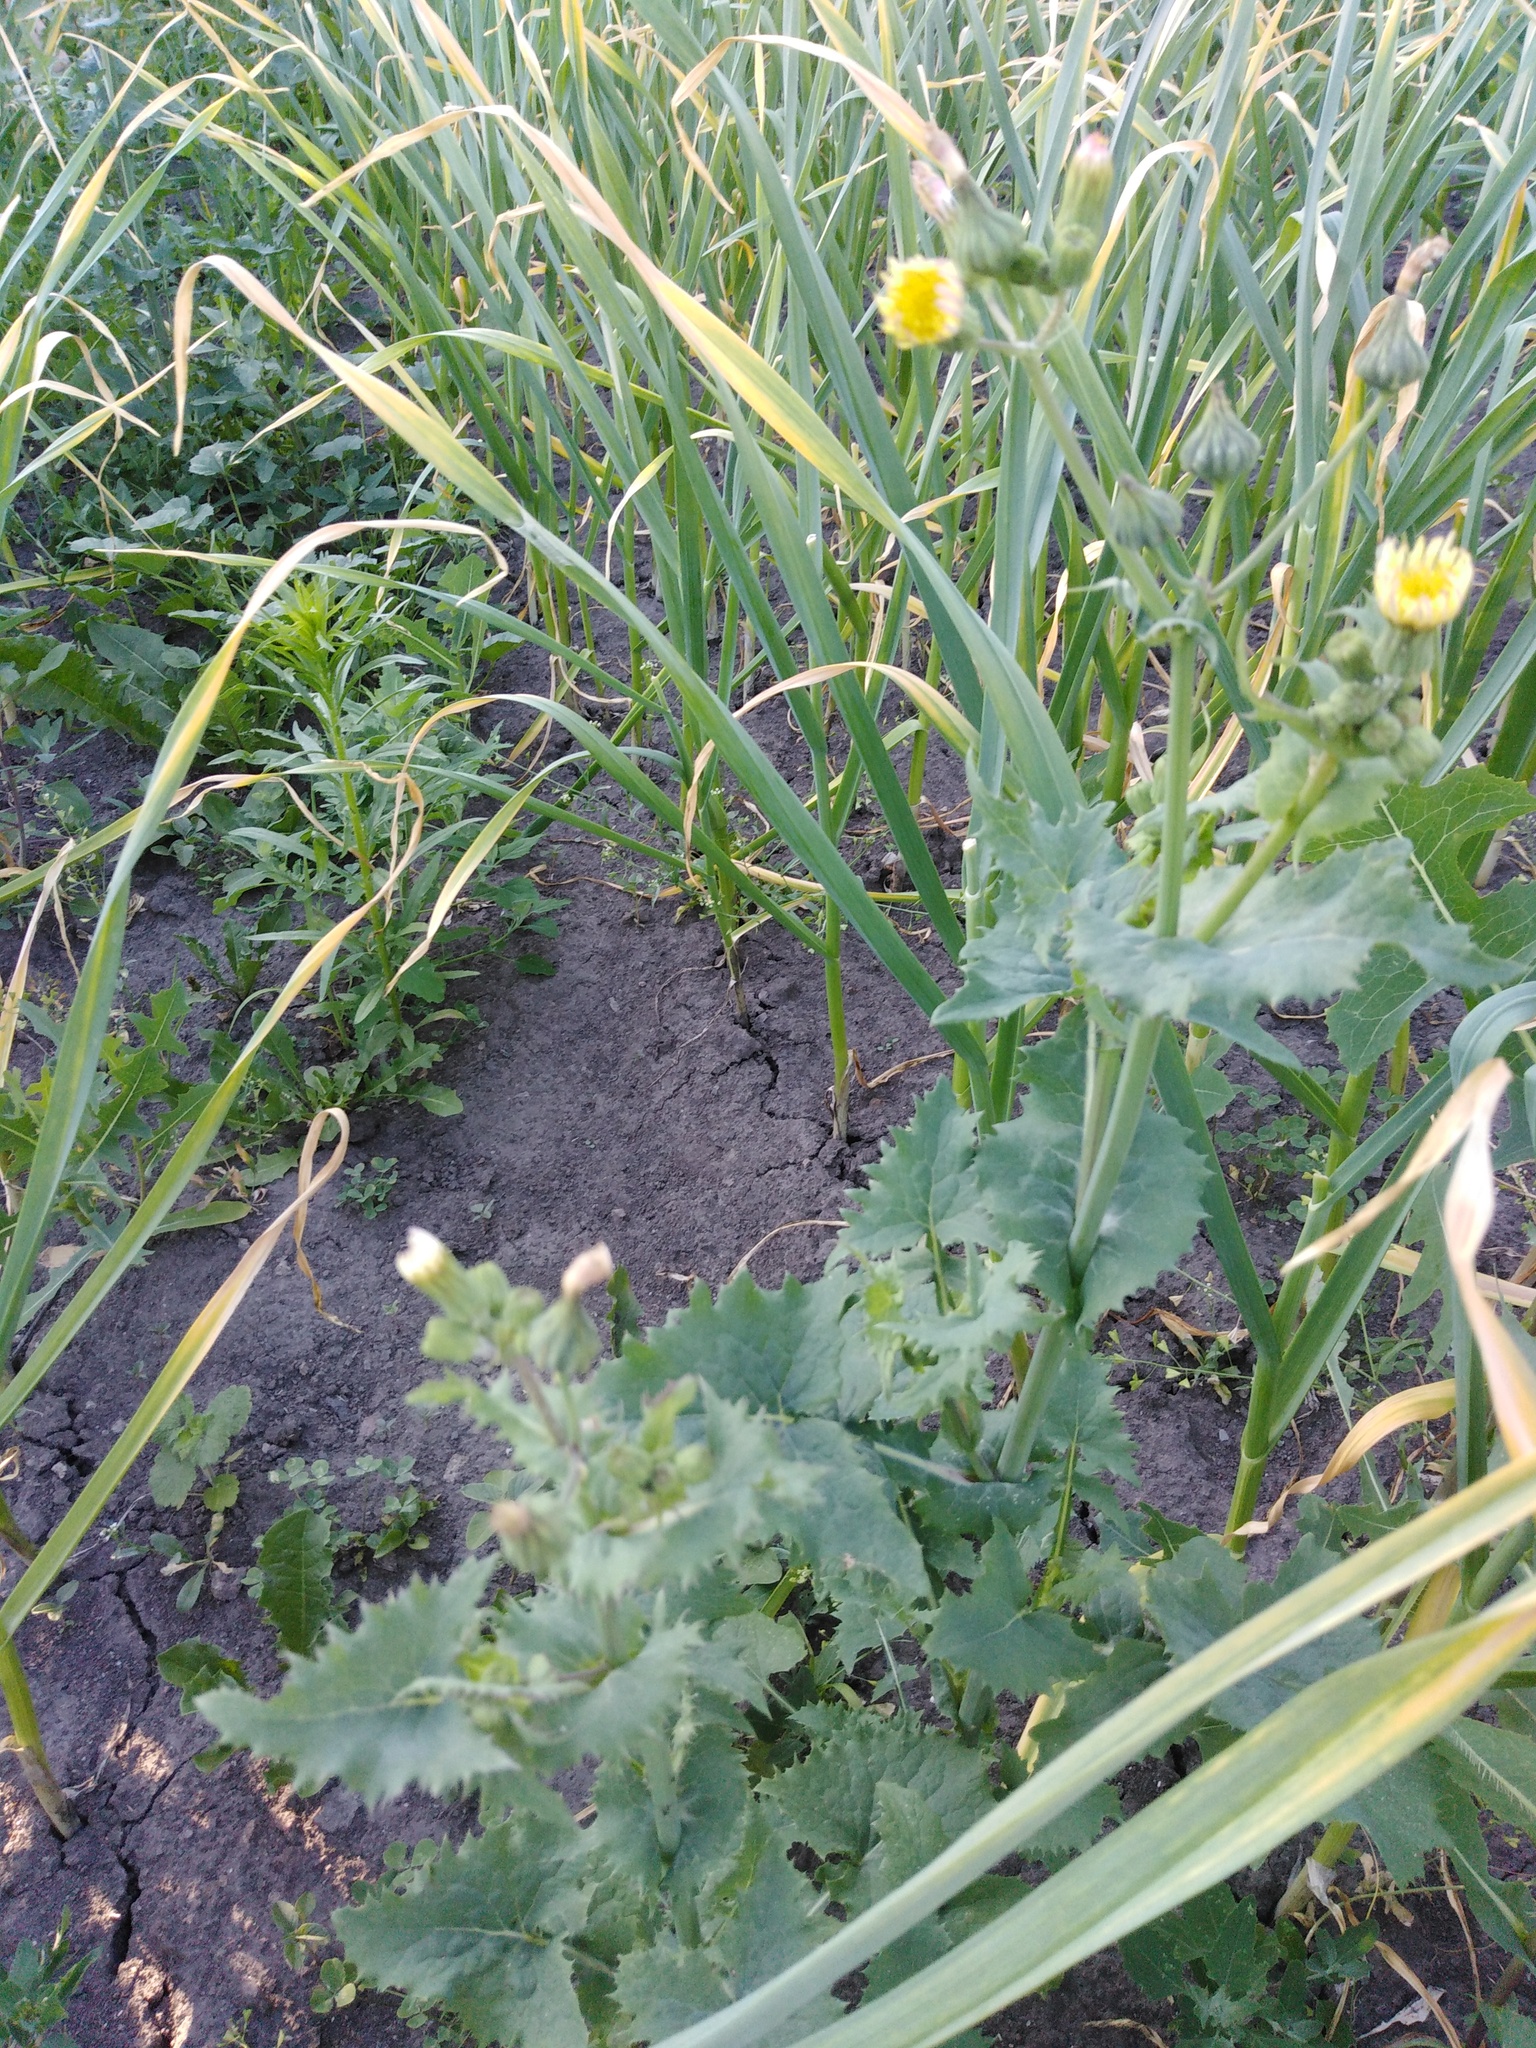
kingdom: Plantae
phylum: Tracheophyta
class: Magnoliopsida
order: Asterales
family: Asteraceae
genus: Sonchus
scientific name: Sonchus oleraceus
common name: Common sowthistle
